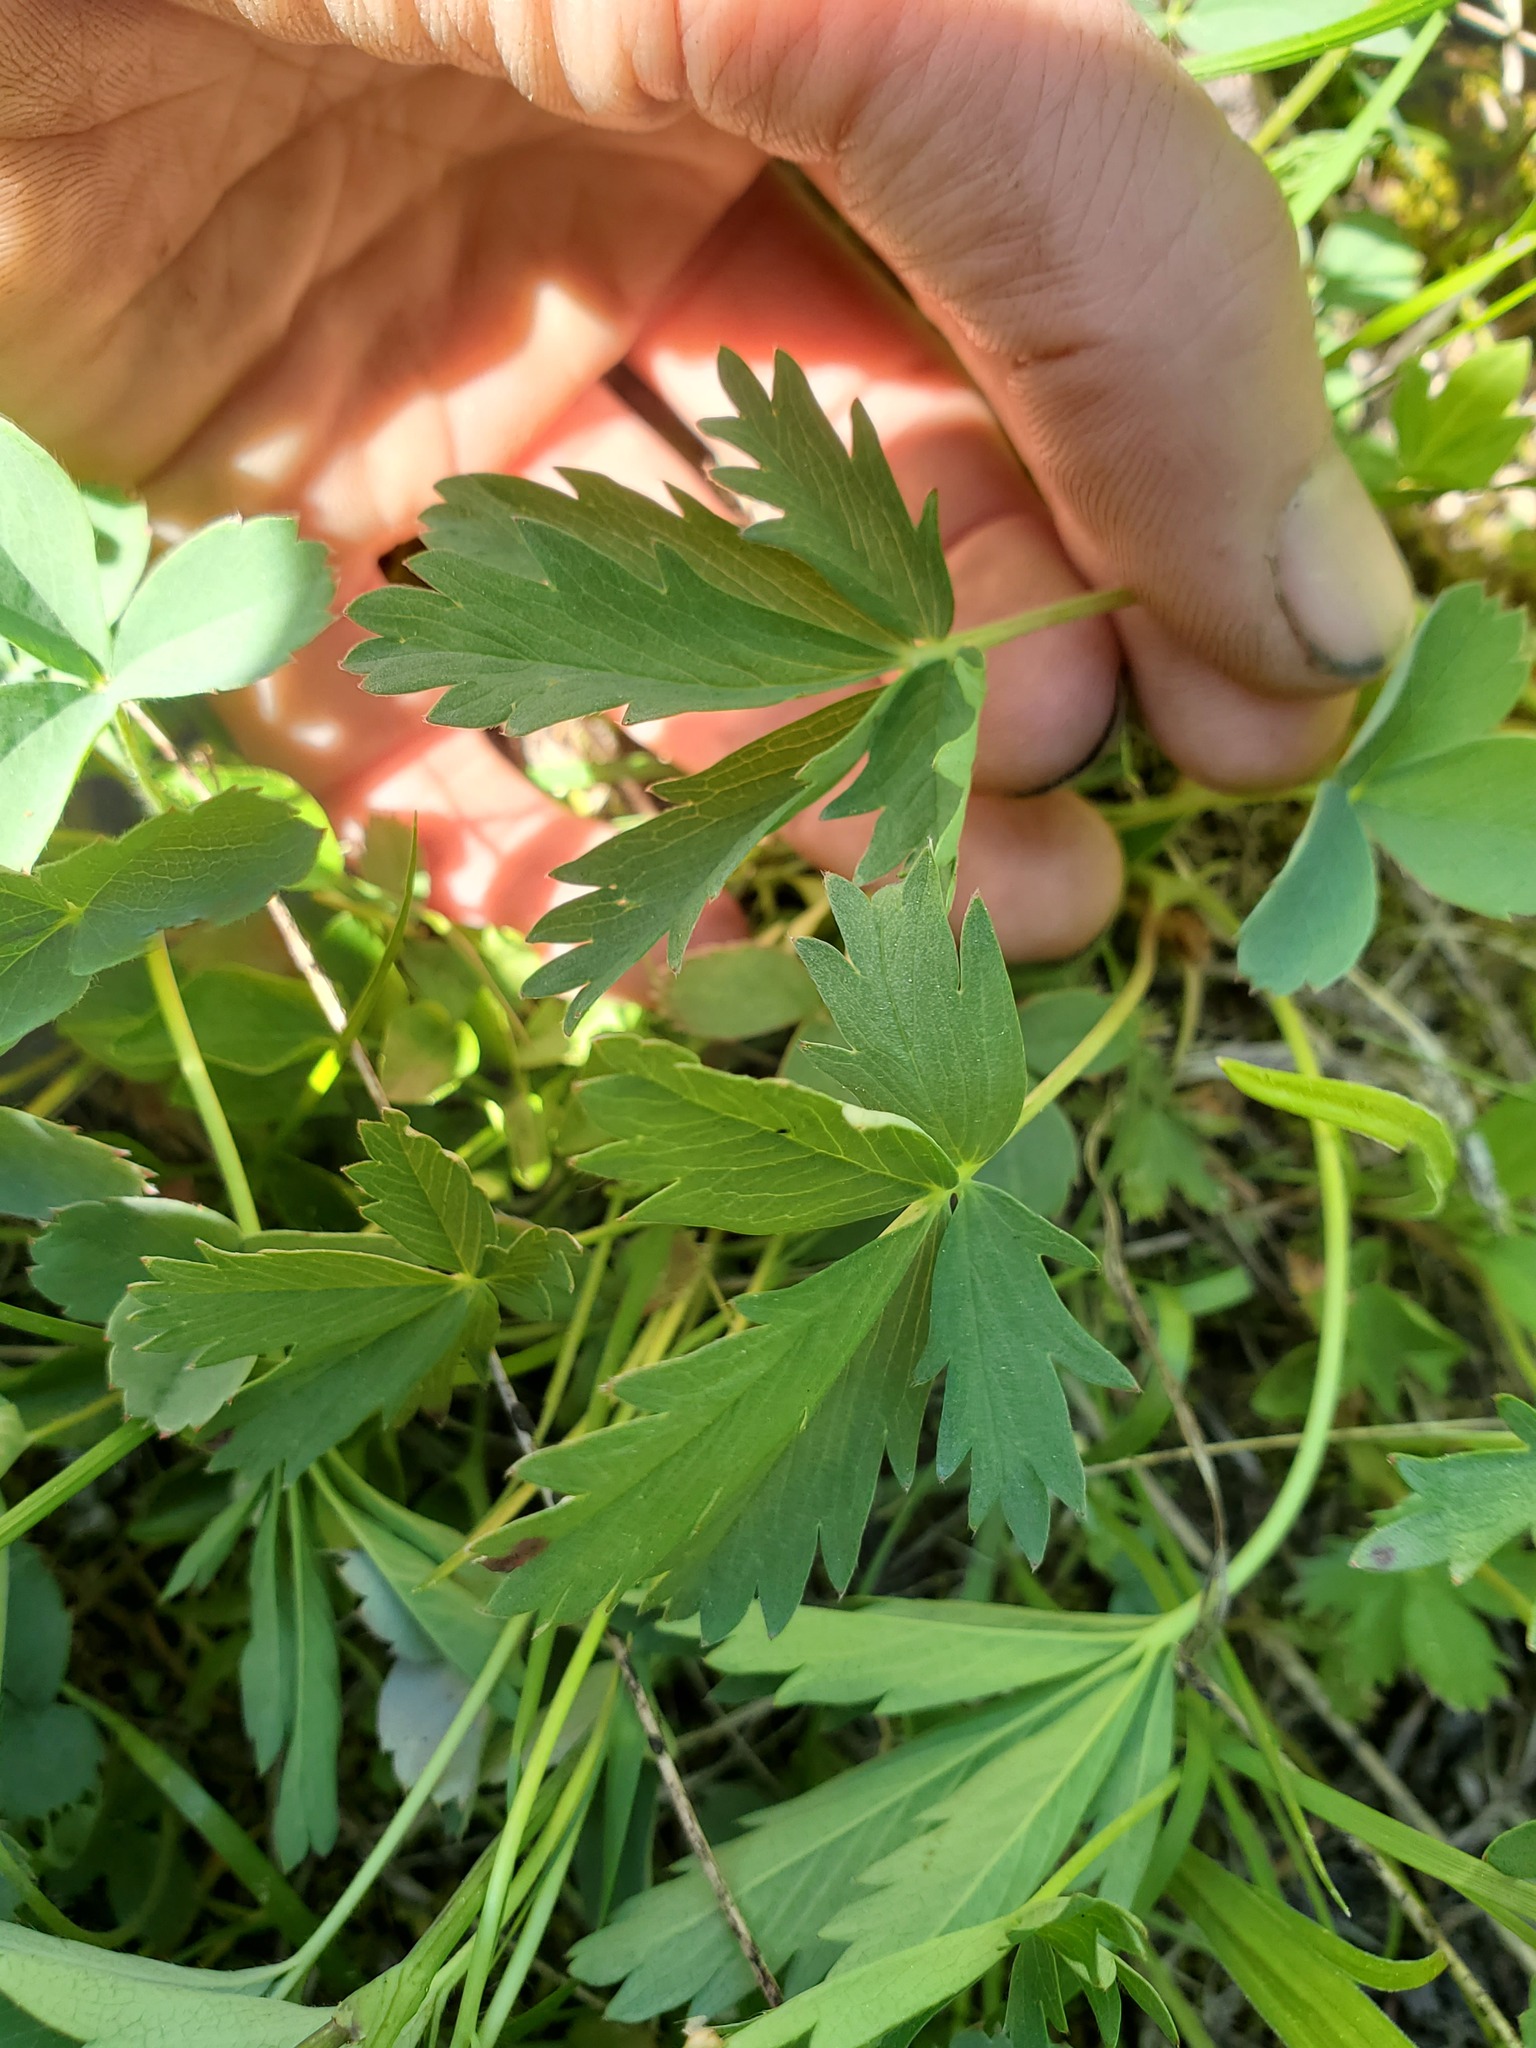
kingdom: Plantae
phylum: Tracheophyta
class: Magnoliopsida
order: Rosales
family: Rosaceae
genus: Potentilla
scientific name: Potentilla glaucophylla
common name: Blue-leaved cinquefoil
